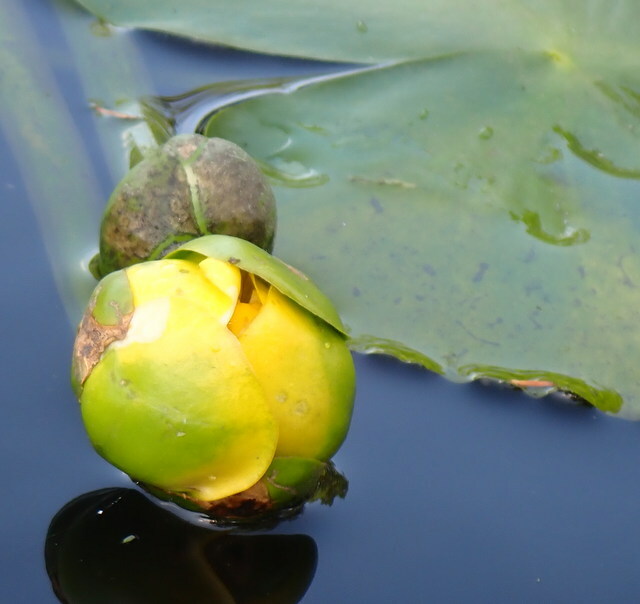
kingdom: Plantae
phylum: Tracheophyta
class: Magnoliopsida
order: Nymphaeales
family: Nymphaeaceae
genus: Nuphar
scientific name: Nuphar advena
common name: Spatter-dock
